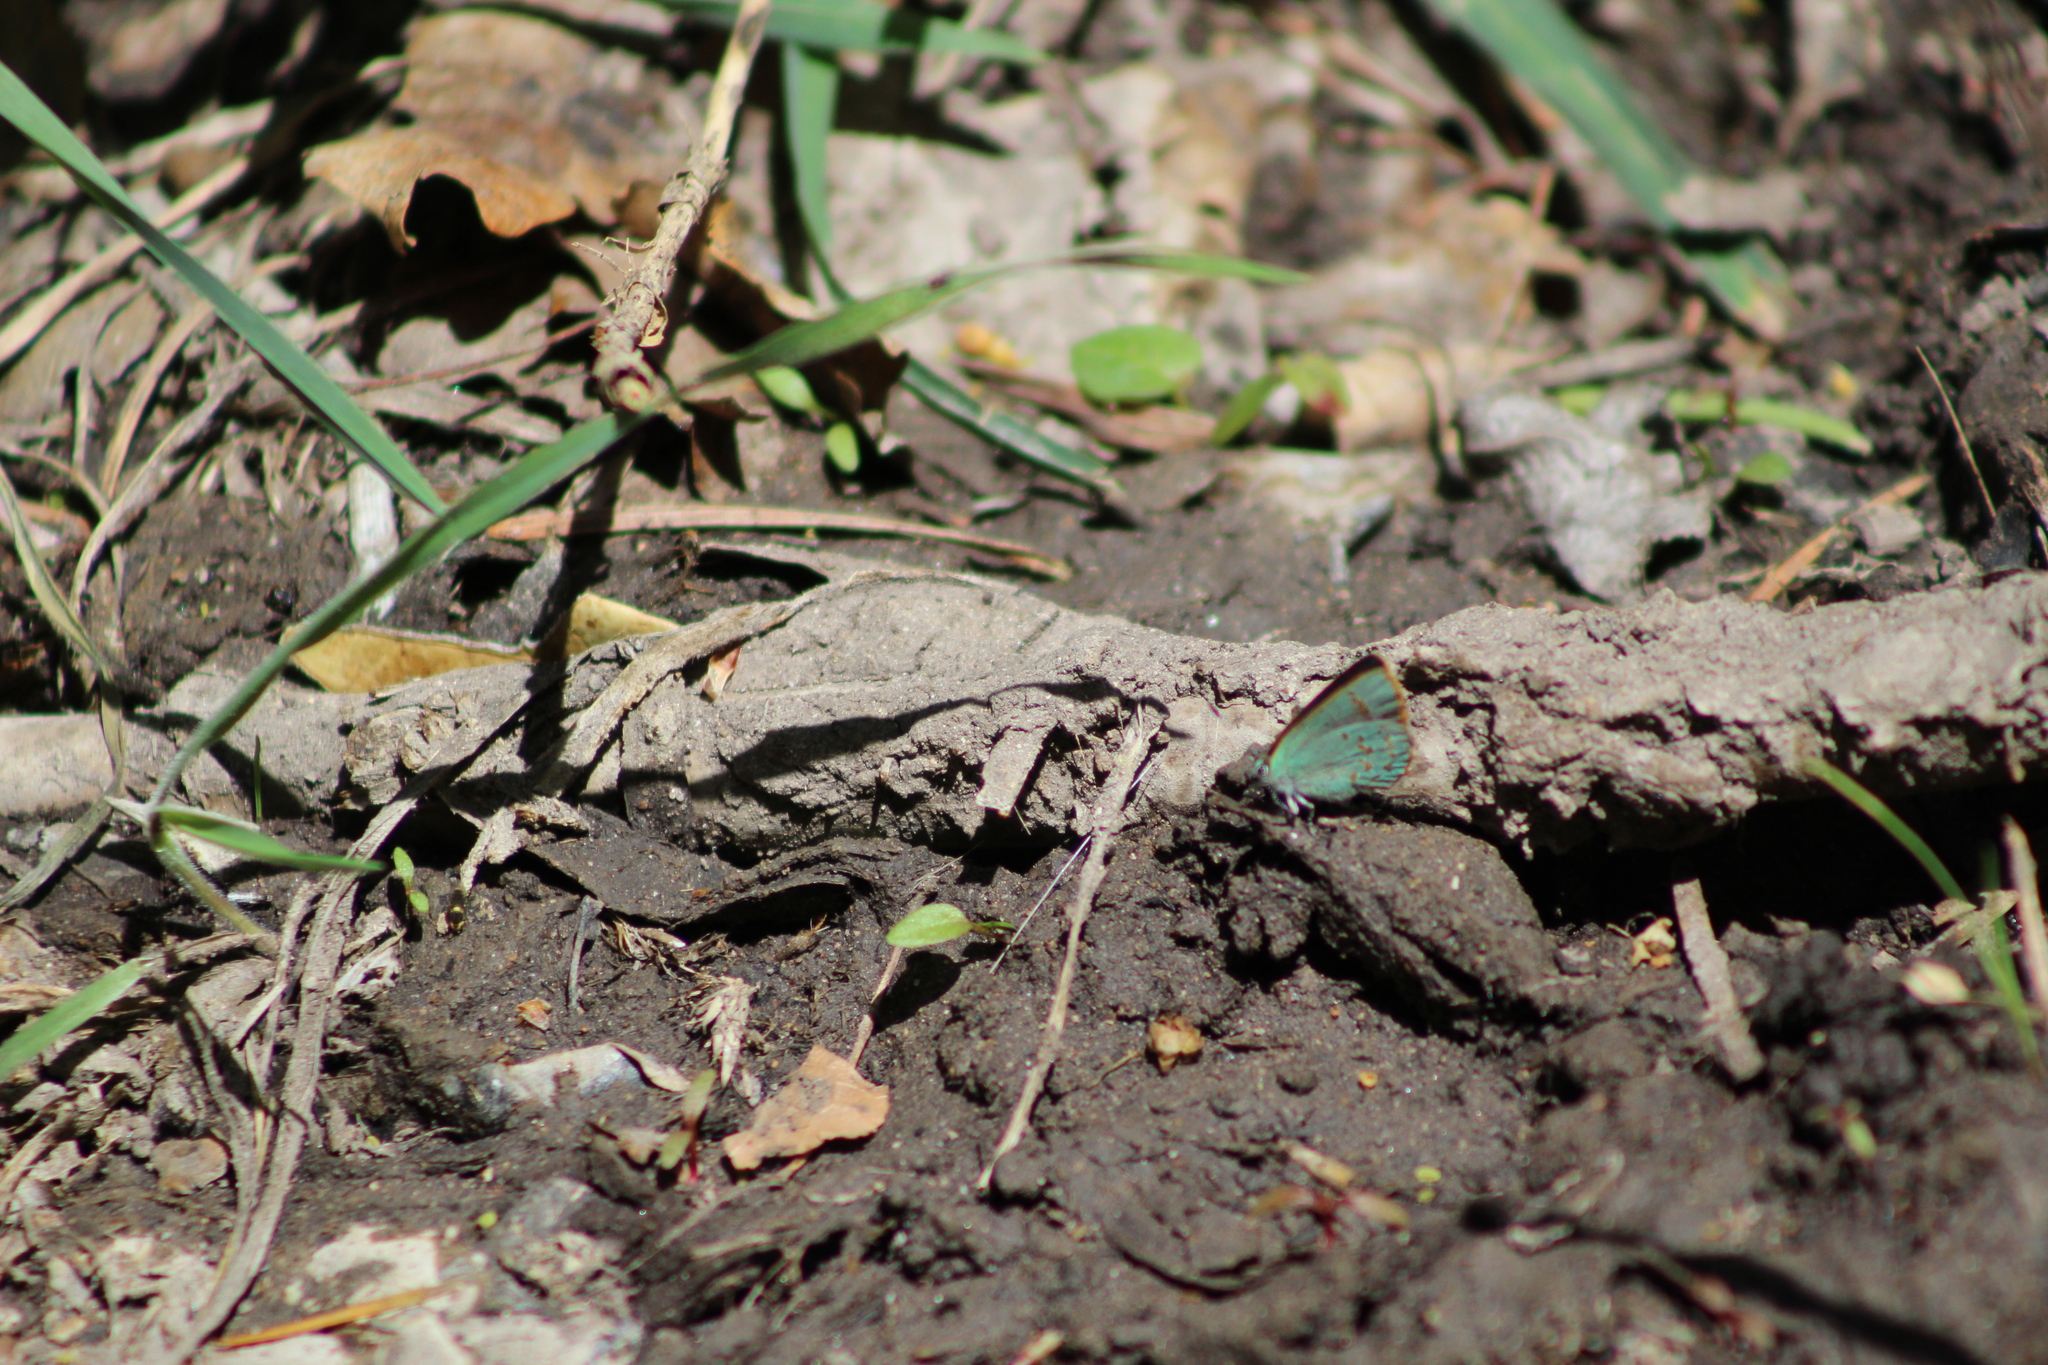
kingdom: Animalia
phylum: Arthropoda
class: Insecta
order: Lepidoptera
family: Lycaenidae
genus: Erora
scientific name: Erora quaderna
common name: Arizona hairstreak
